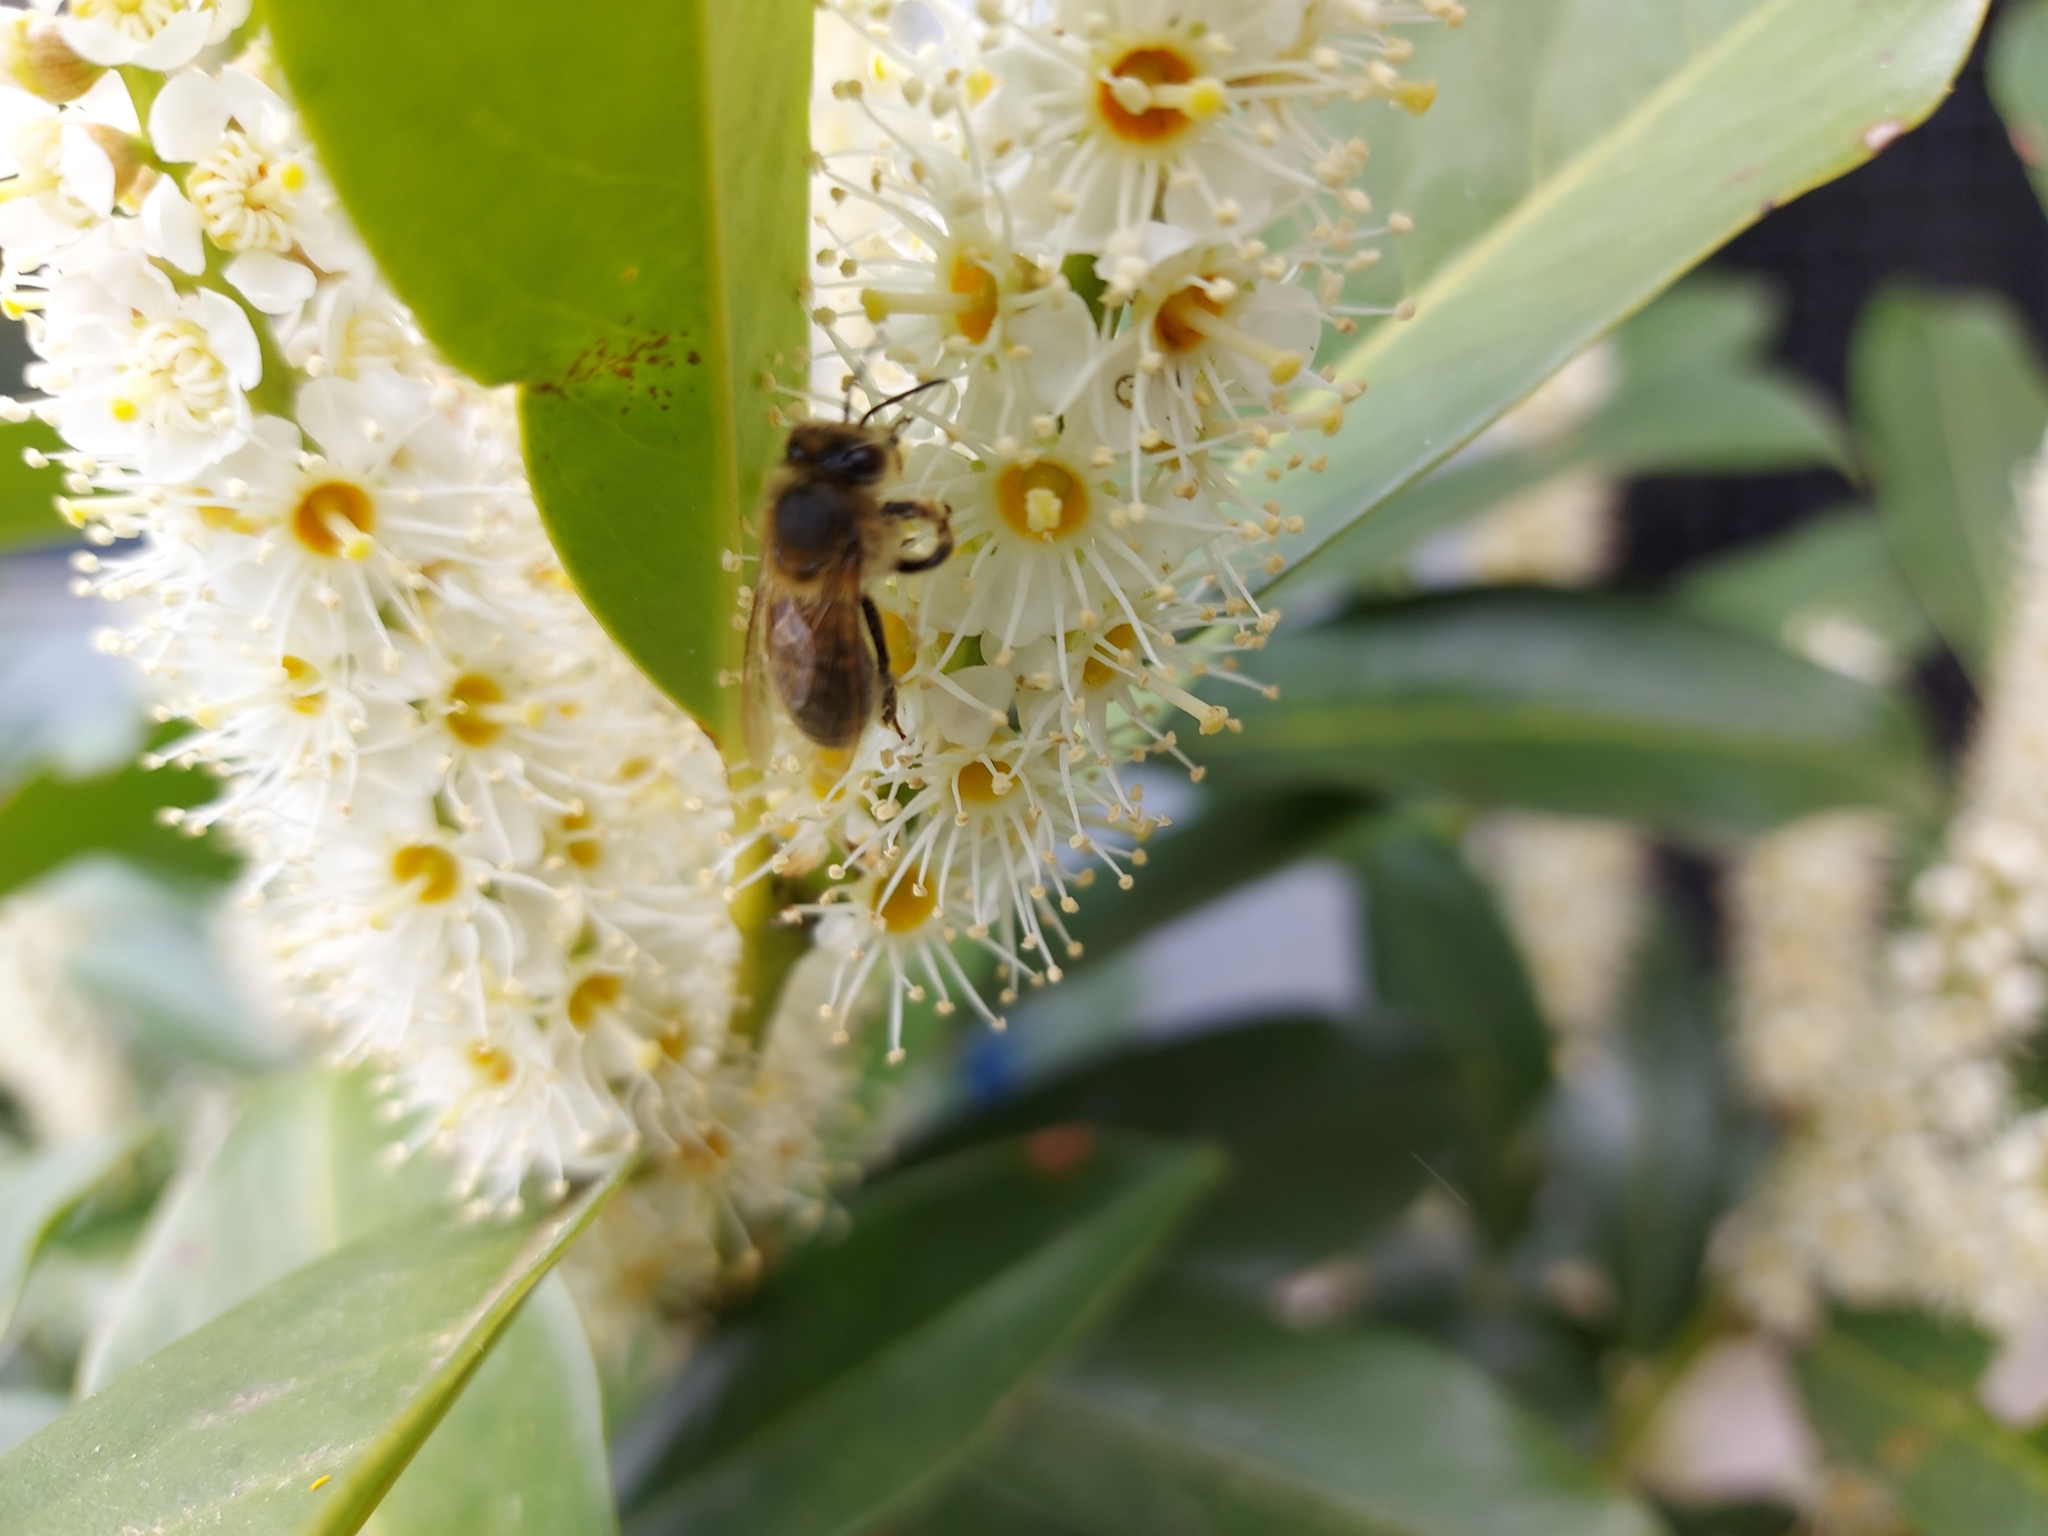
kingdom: Animalia
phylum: Arthropoda
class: Insecta
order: Hymenoptera
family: Apidae
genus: Apis
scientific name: Apis mellifera
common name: Honey bee
